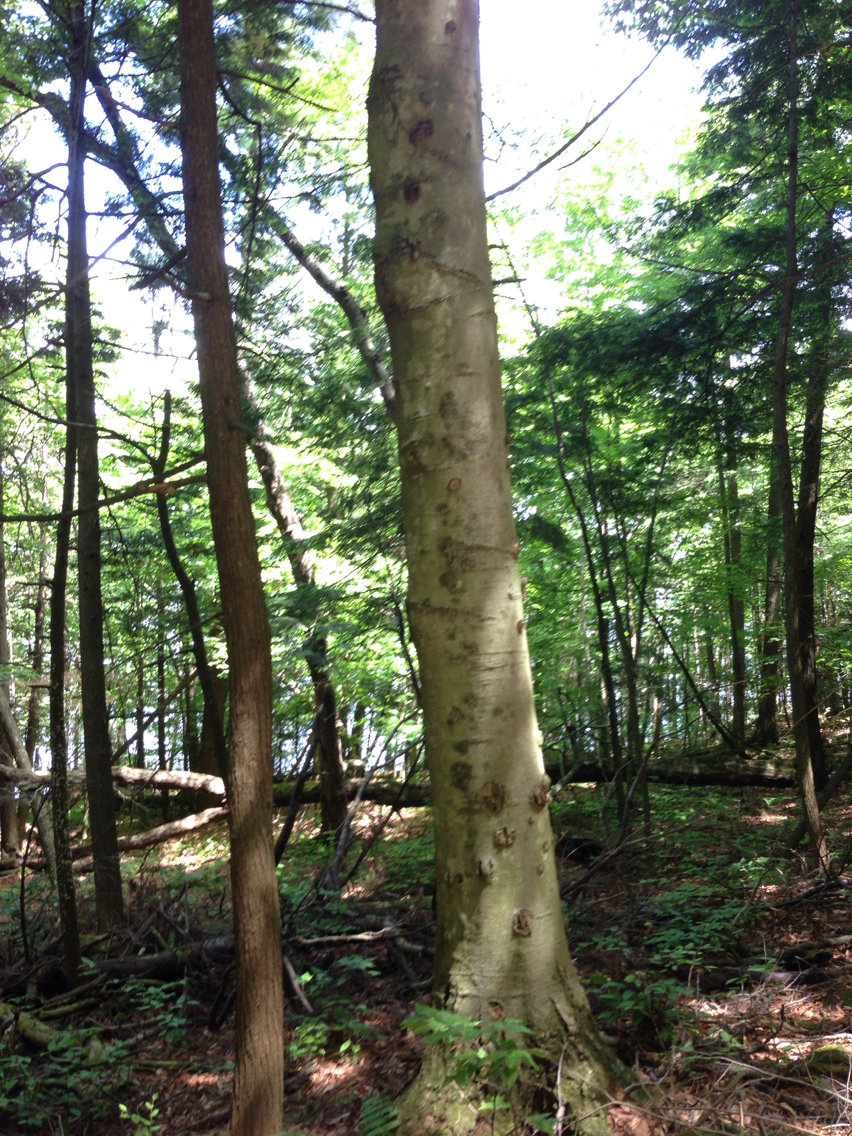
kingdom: Plantae
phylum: Tracheophyta
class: Magnoliopsida
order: Fagales
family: Fagaceae
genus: Fagus
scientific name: Fagus grandifolia
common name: American beech
